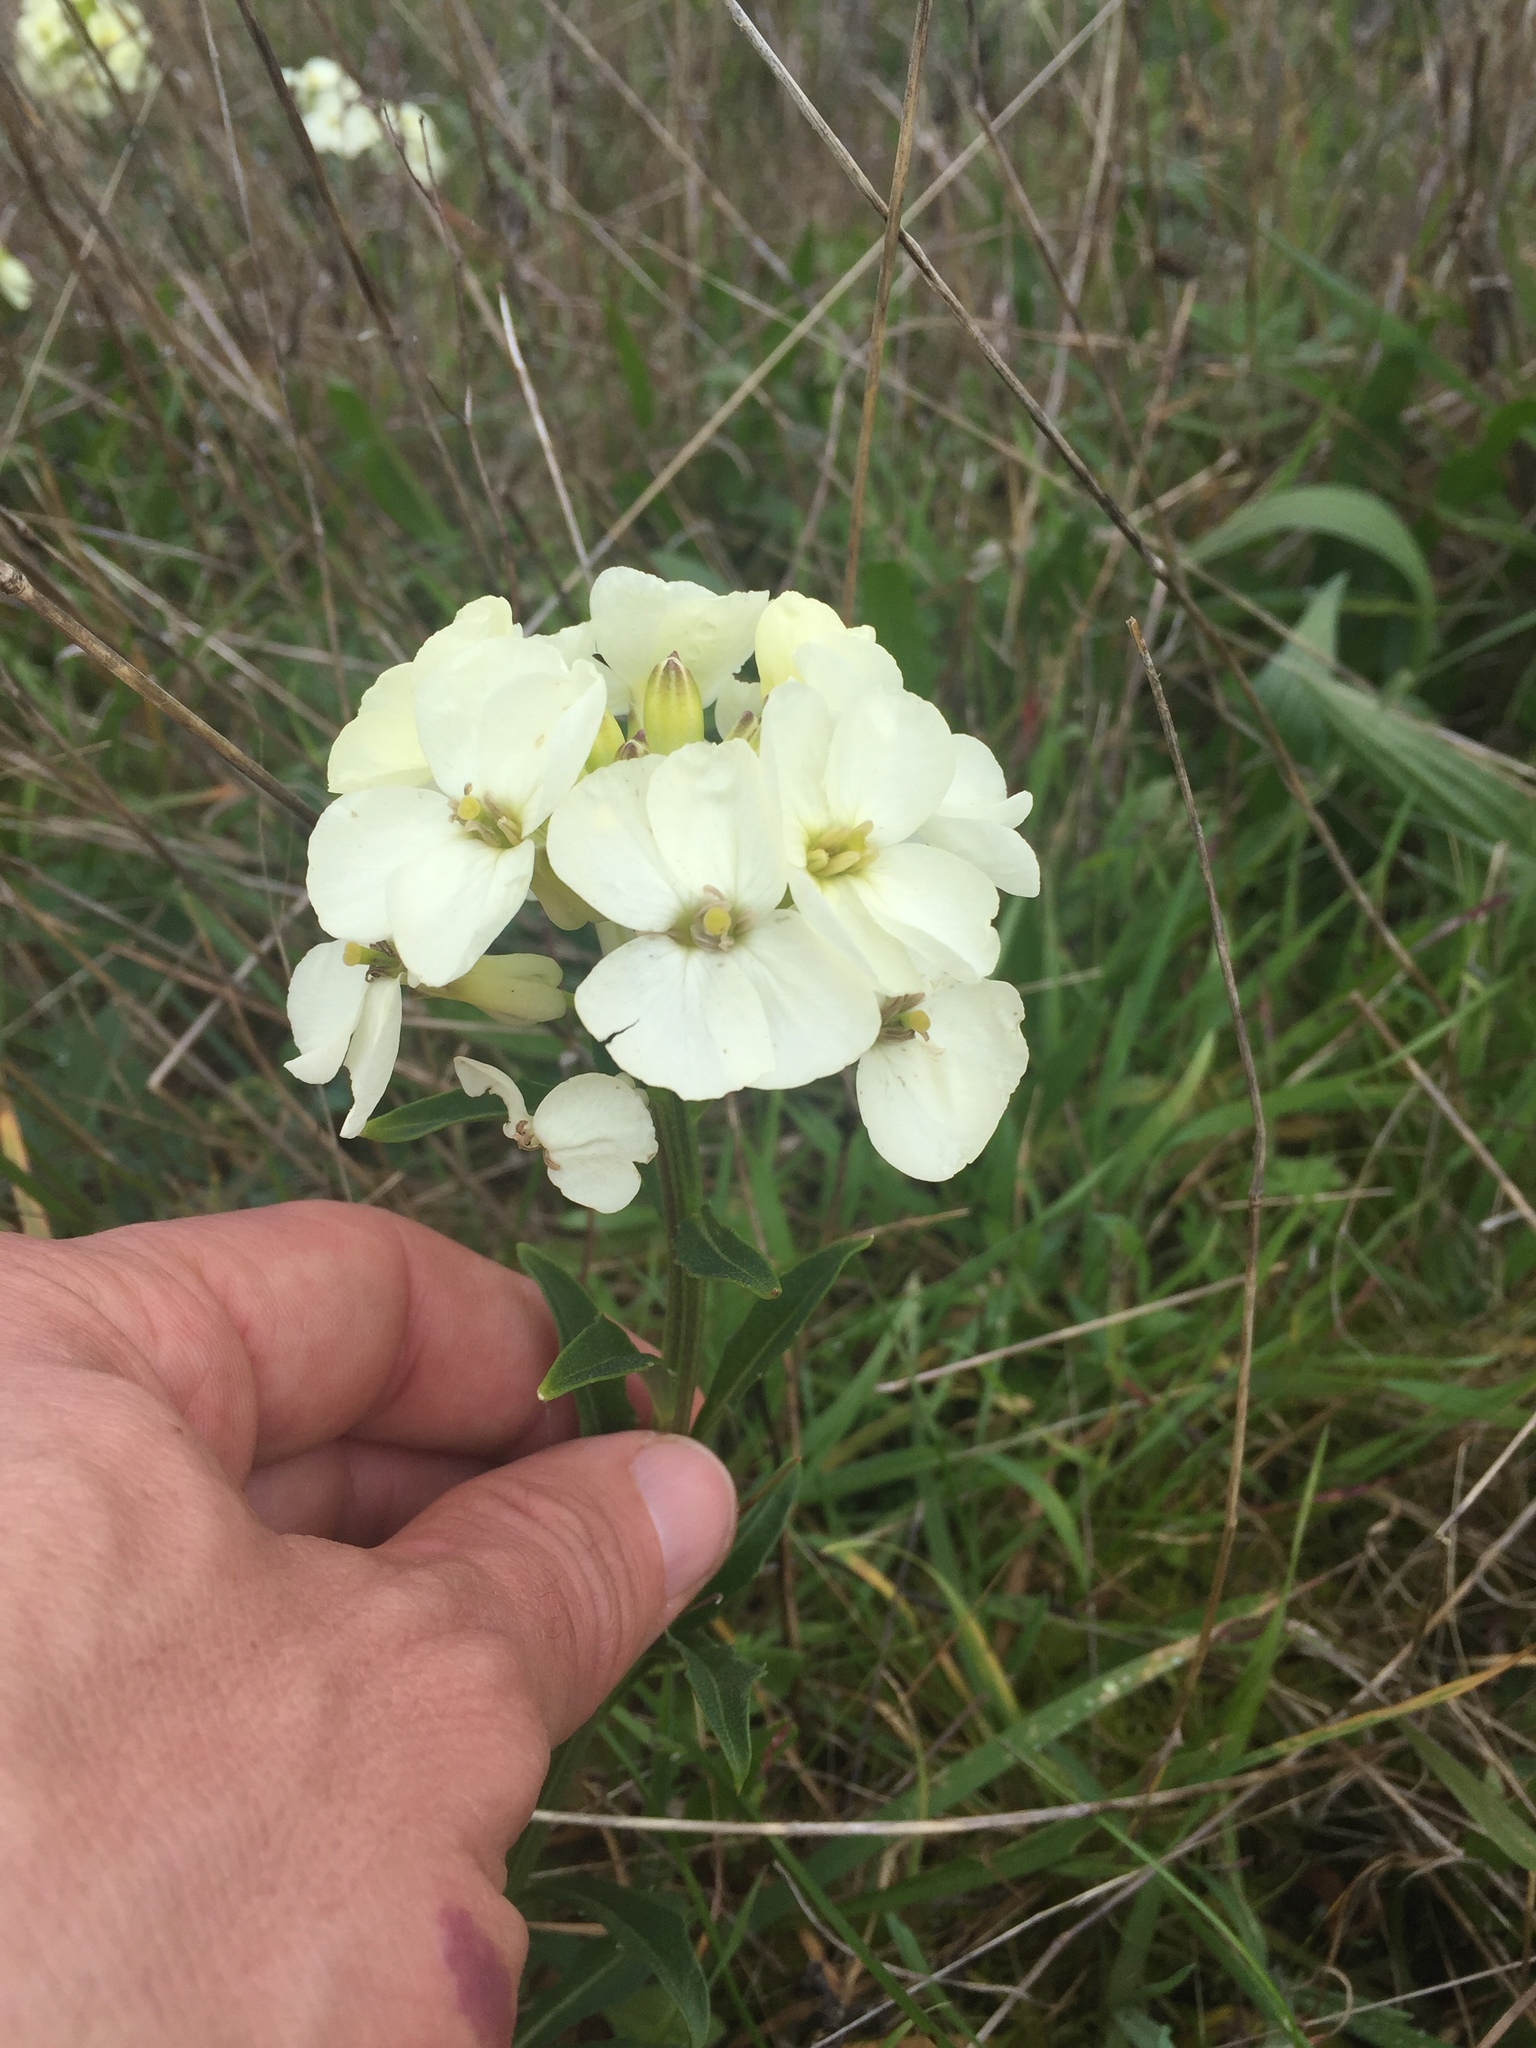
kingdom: Plantae
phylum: Tracheophyta
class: Magnoliopsida
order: Brassicales
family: Brassicaceae
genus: Erysimum
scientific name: Erysimum concinnum
